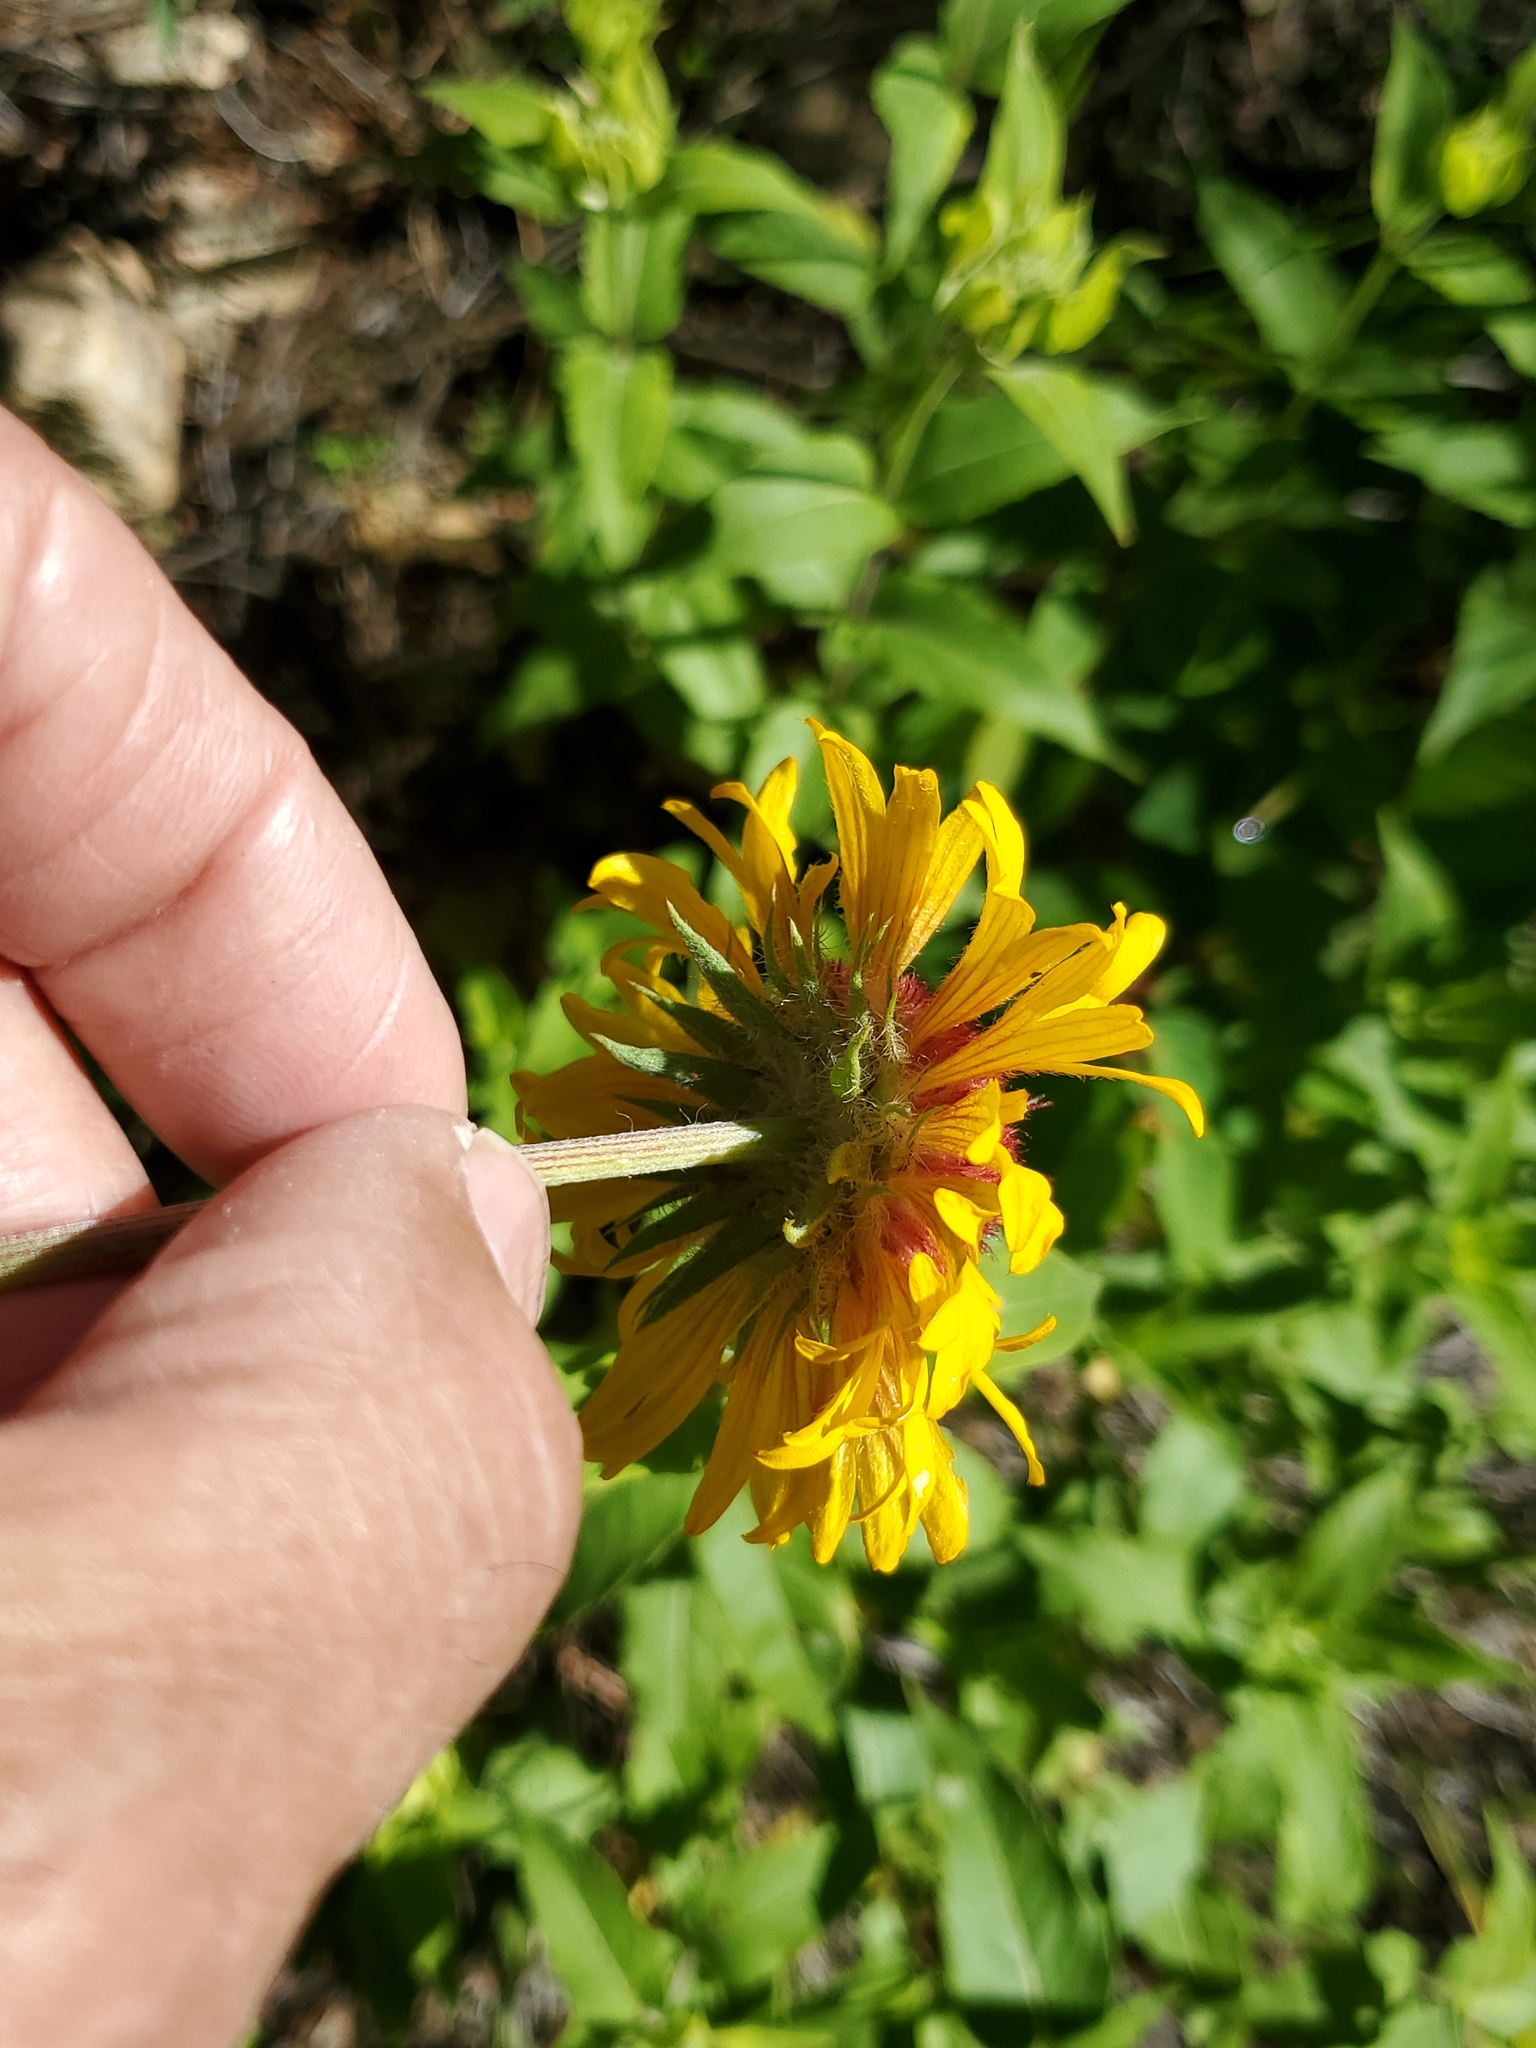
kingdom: Plantae
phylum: Tracheophyta
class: Magnoliopsida
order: Asterales
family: Asteraceae
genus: Gaillardia
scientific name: Gaillardia aristata
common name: Blanket-flower
